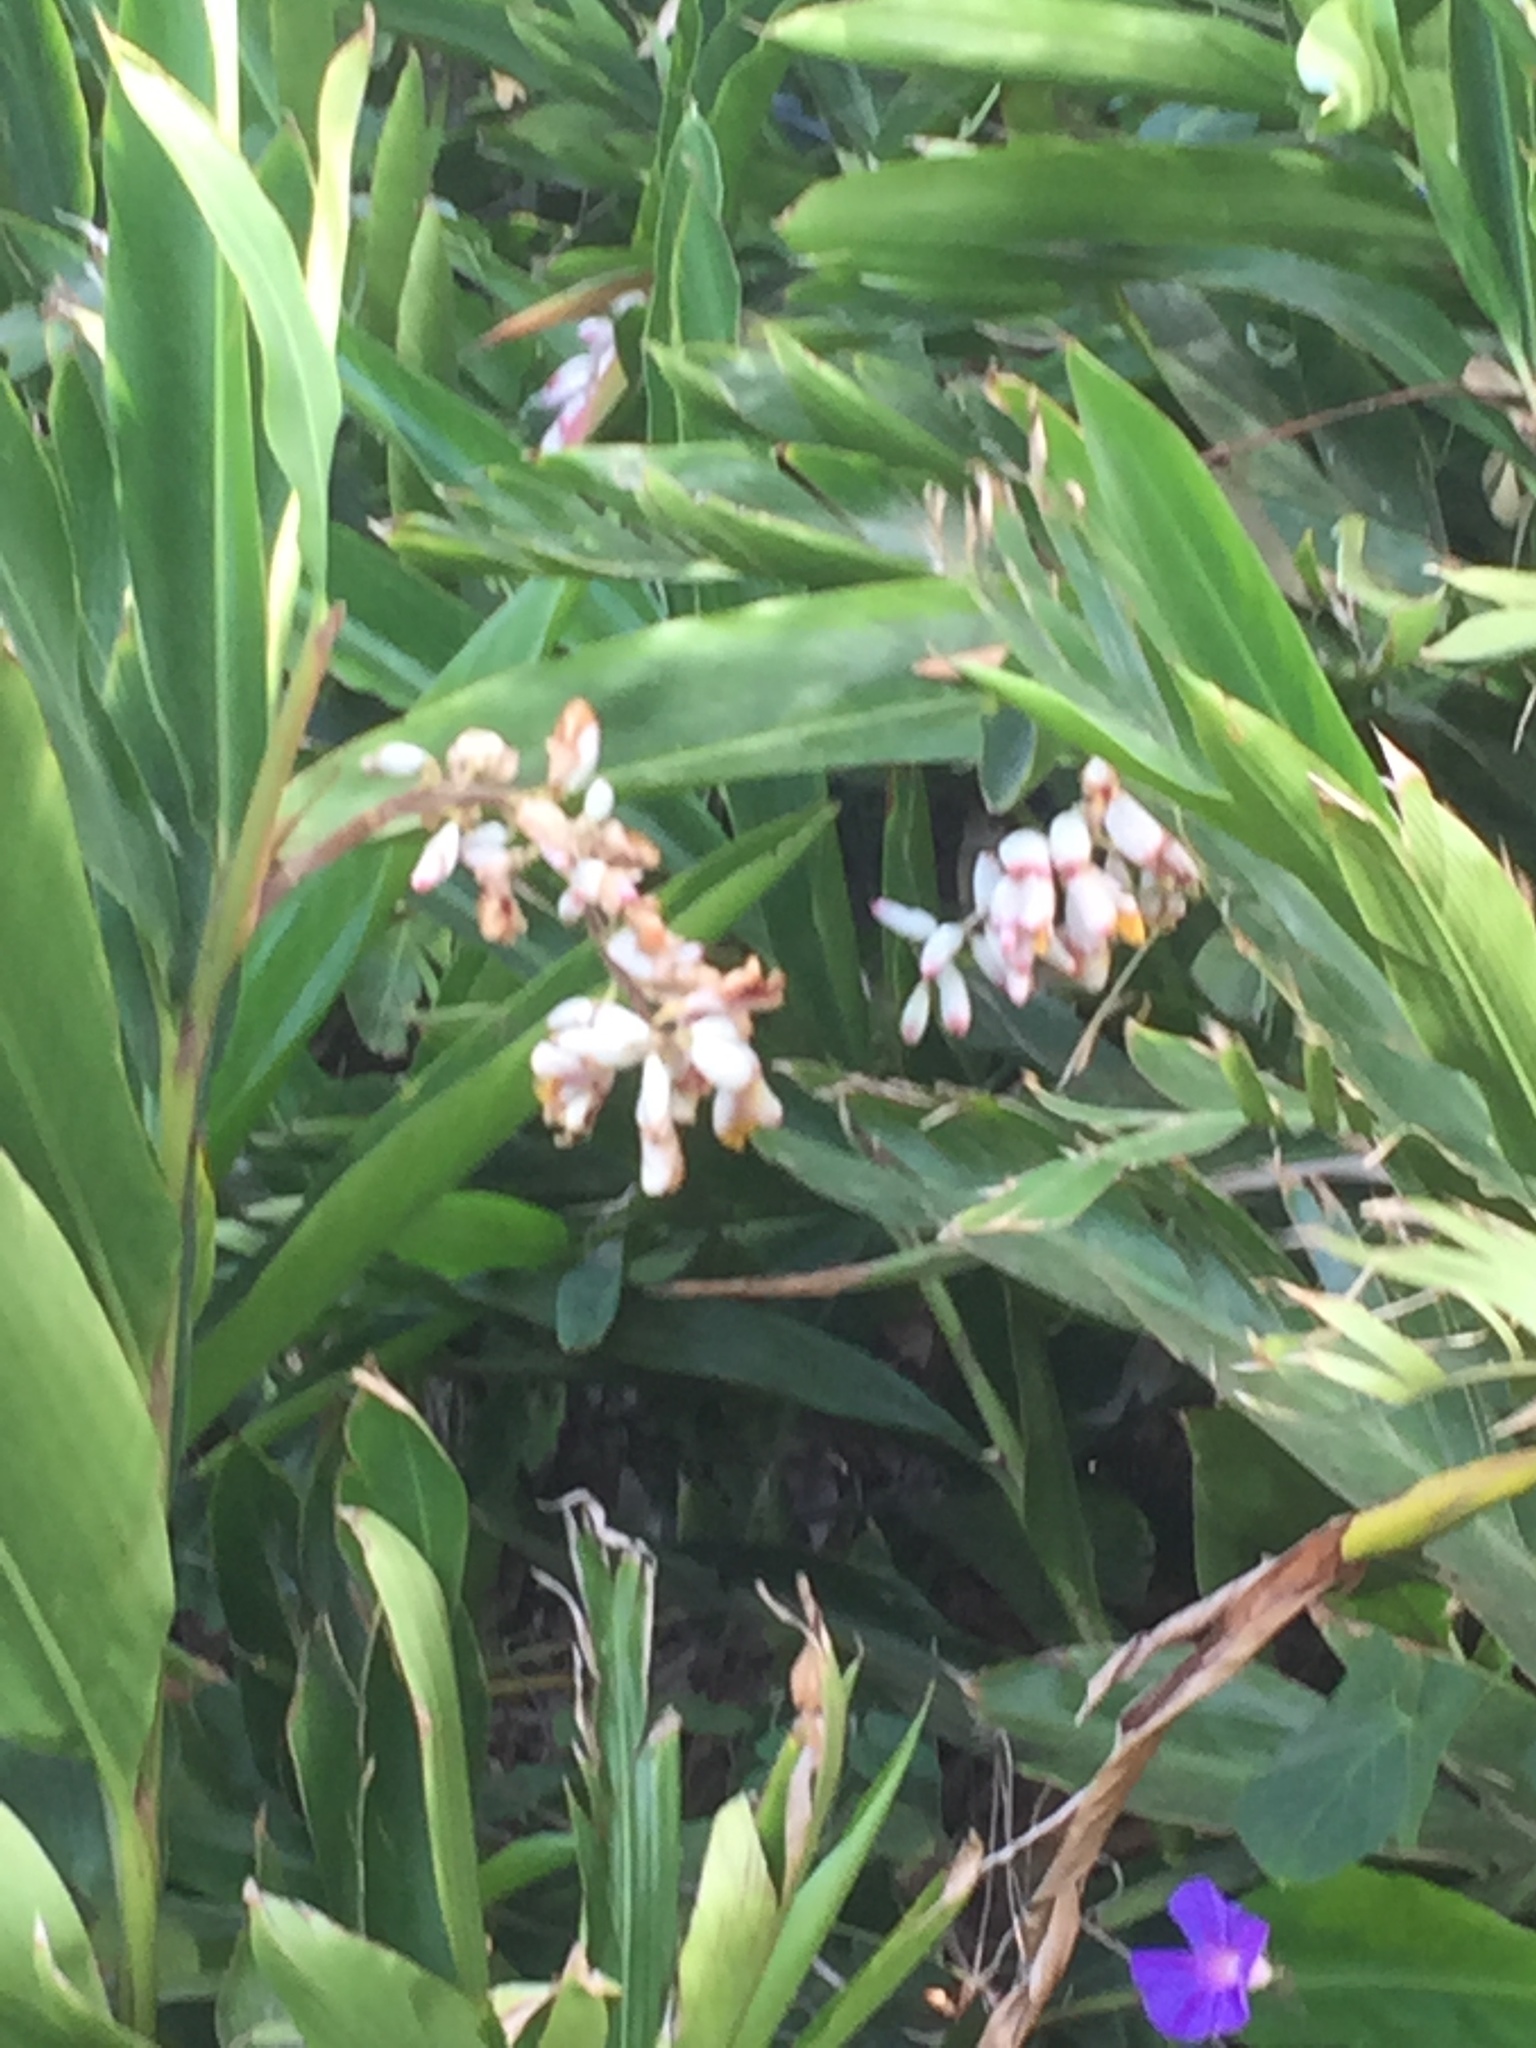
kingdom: Plantae
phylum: Tracheophyta
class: Liliopsida
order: Zingiberales
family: Zingiberaceae
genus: Alpinia
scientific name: Alpinia zerumbet
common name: Shellplant
